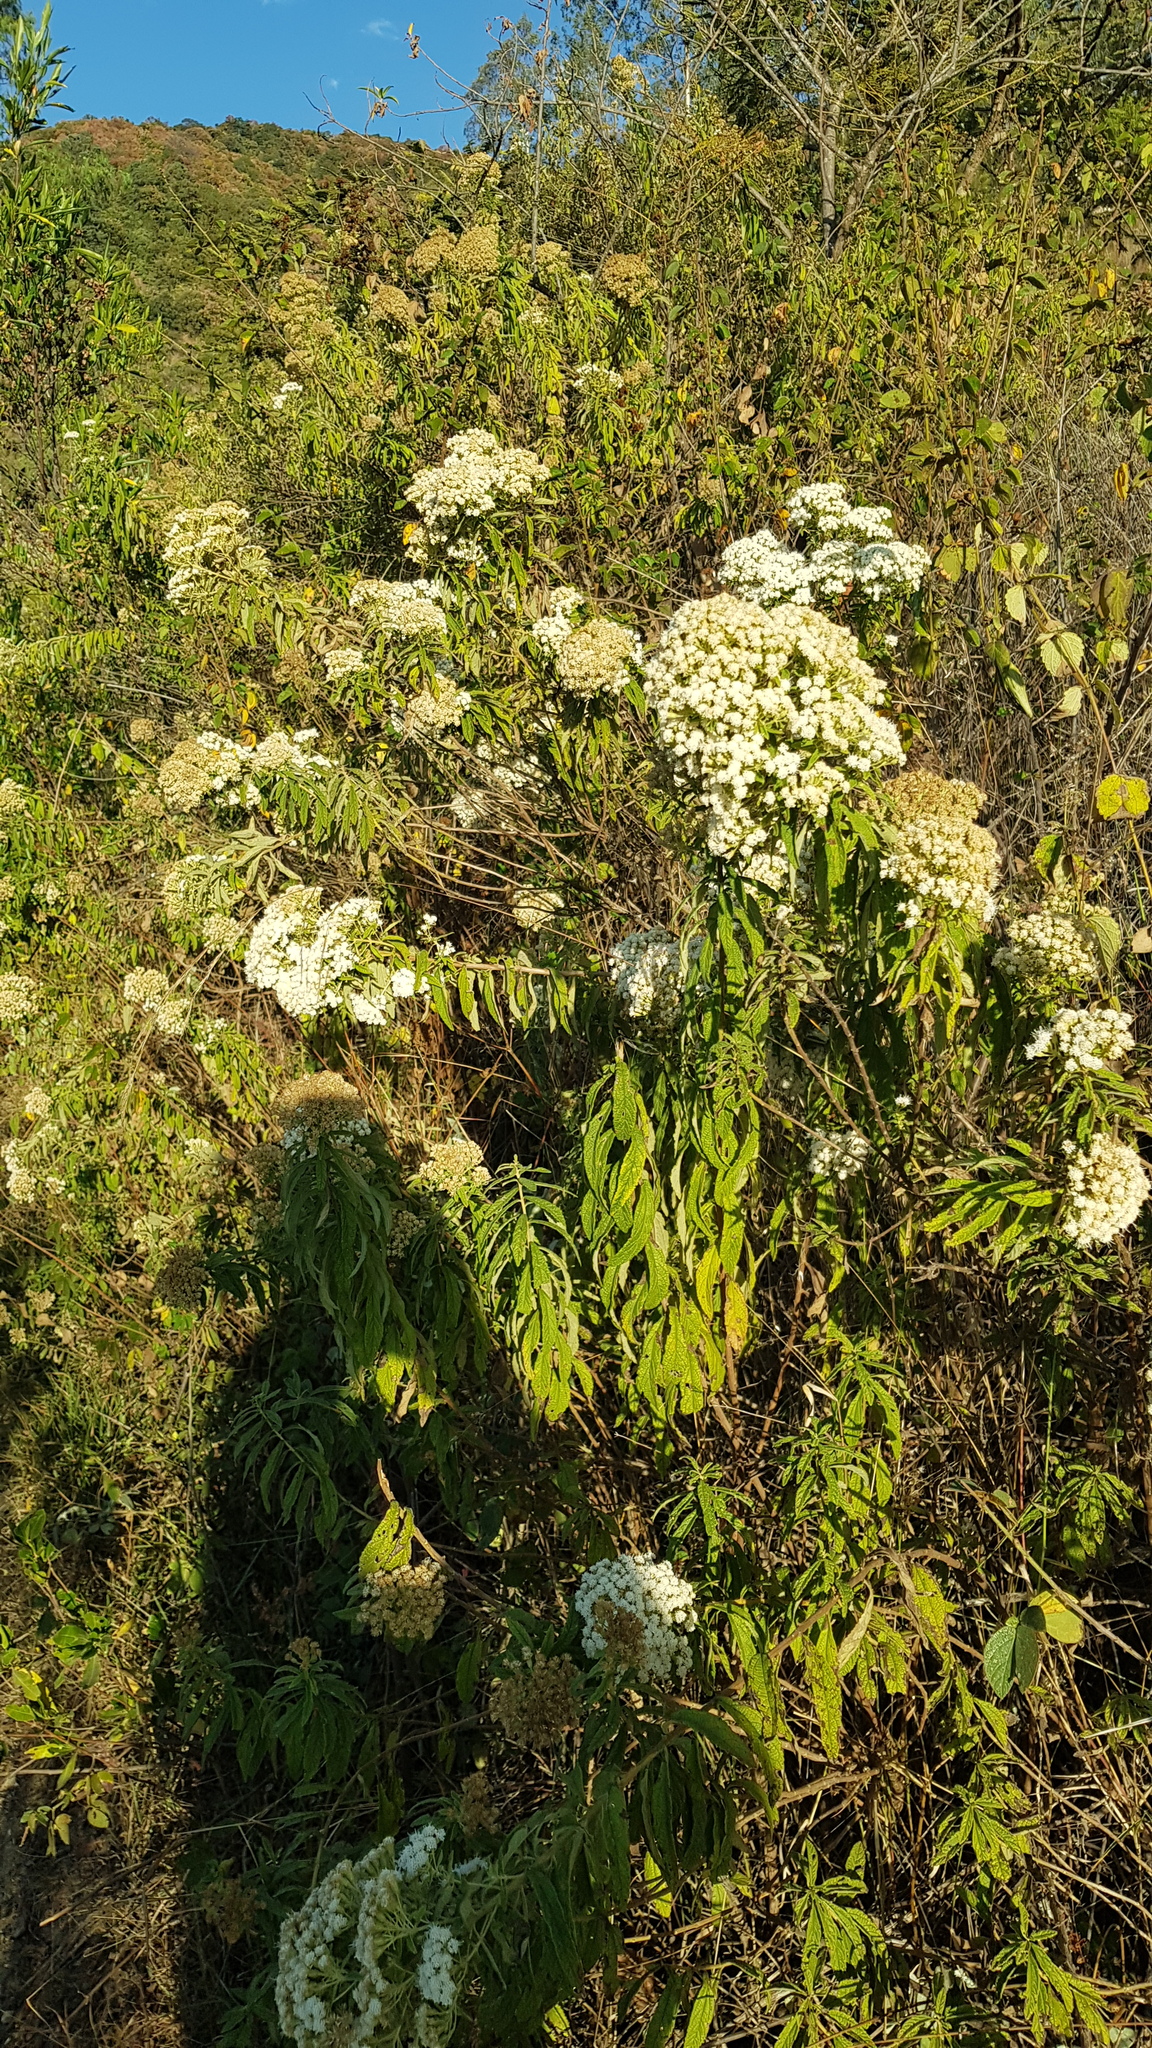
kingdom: Plantae
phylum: Tracheophyta
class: Magnoliopsida
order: Asterales
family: Asteraceae
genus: Ageratina
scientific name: Ageratina liebmannii
